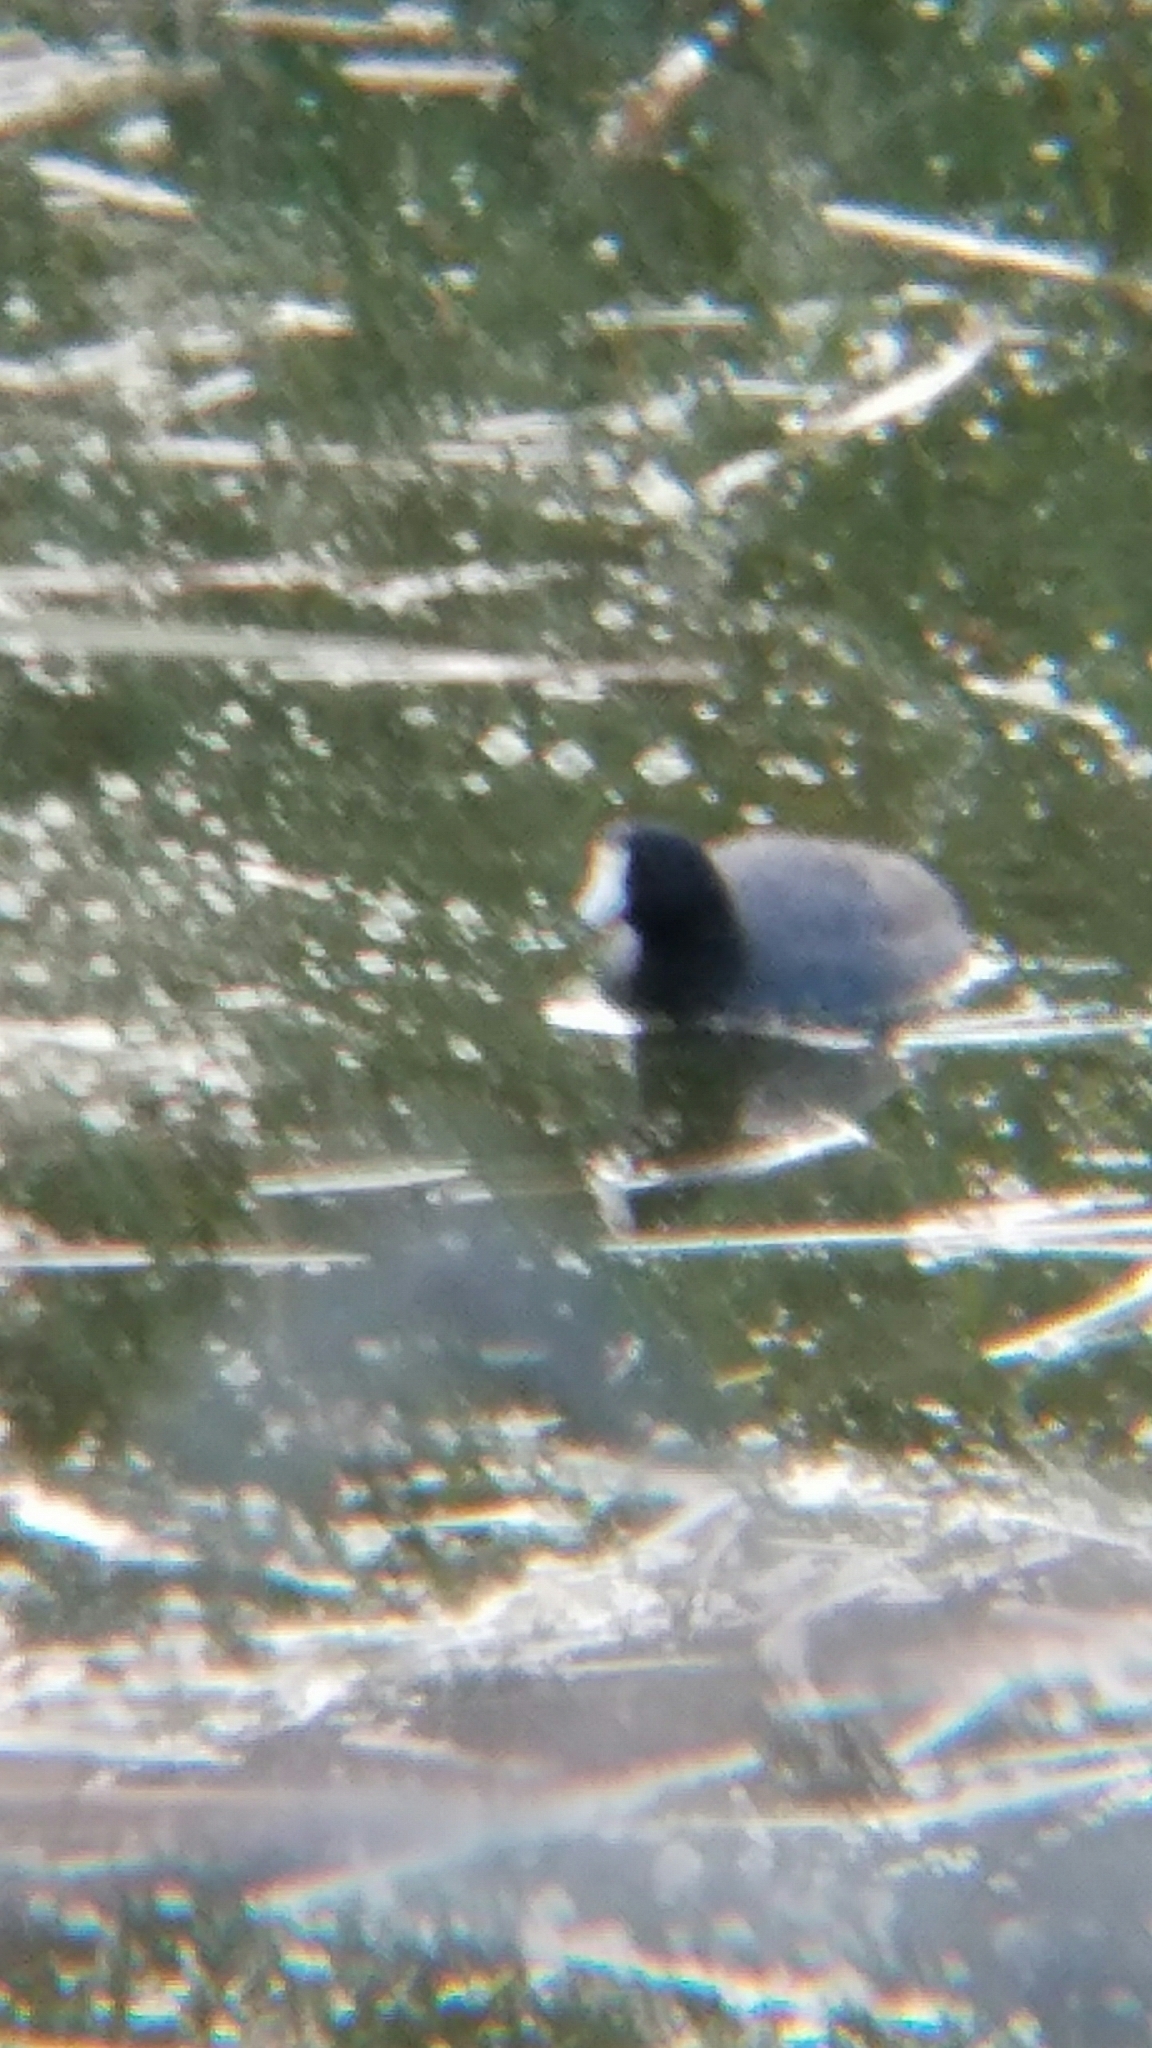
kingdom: Animalia
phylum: Chordata
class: Aves
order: Gruiformes
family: Rallidae
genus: Fulica
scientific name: Fulica americana
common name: American coot
